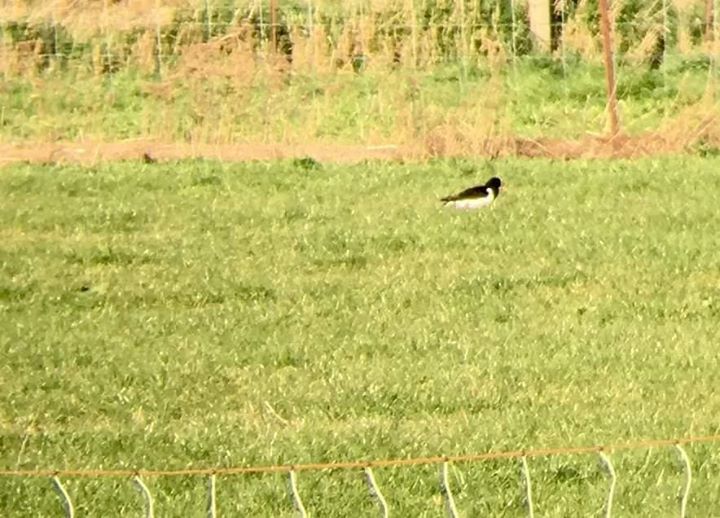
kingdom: Animalia
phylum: Chordata
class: Aves
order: Charadriiformes
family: Haematopodidae
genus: Haematopus
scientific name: Haematopus finschi
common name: South island oystercatcher
